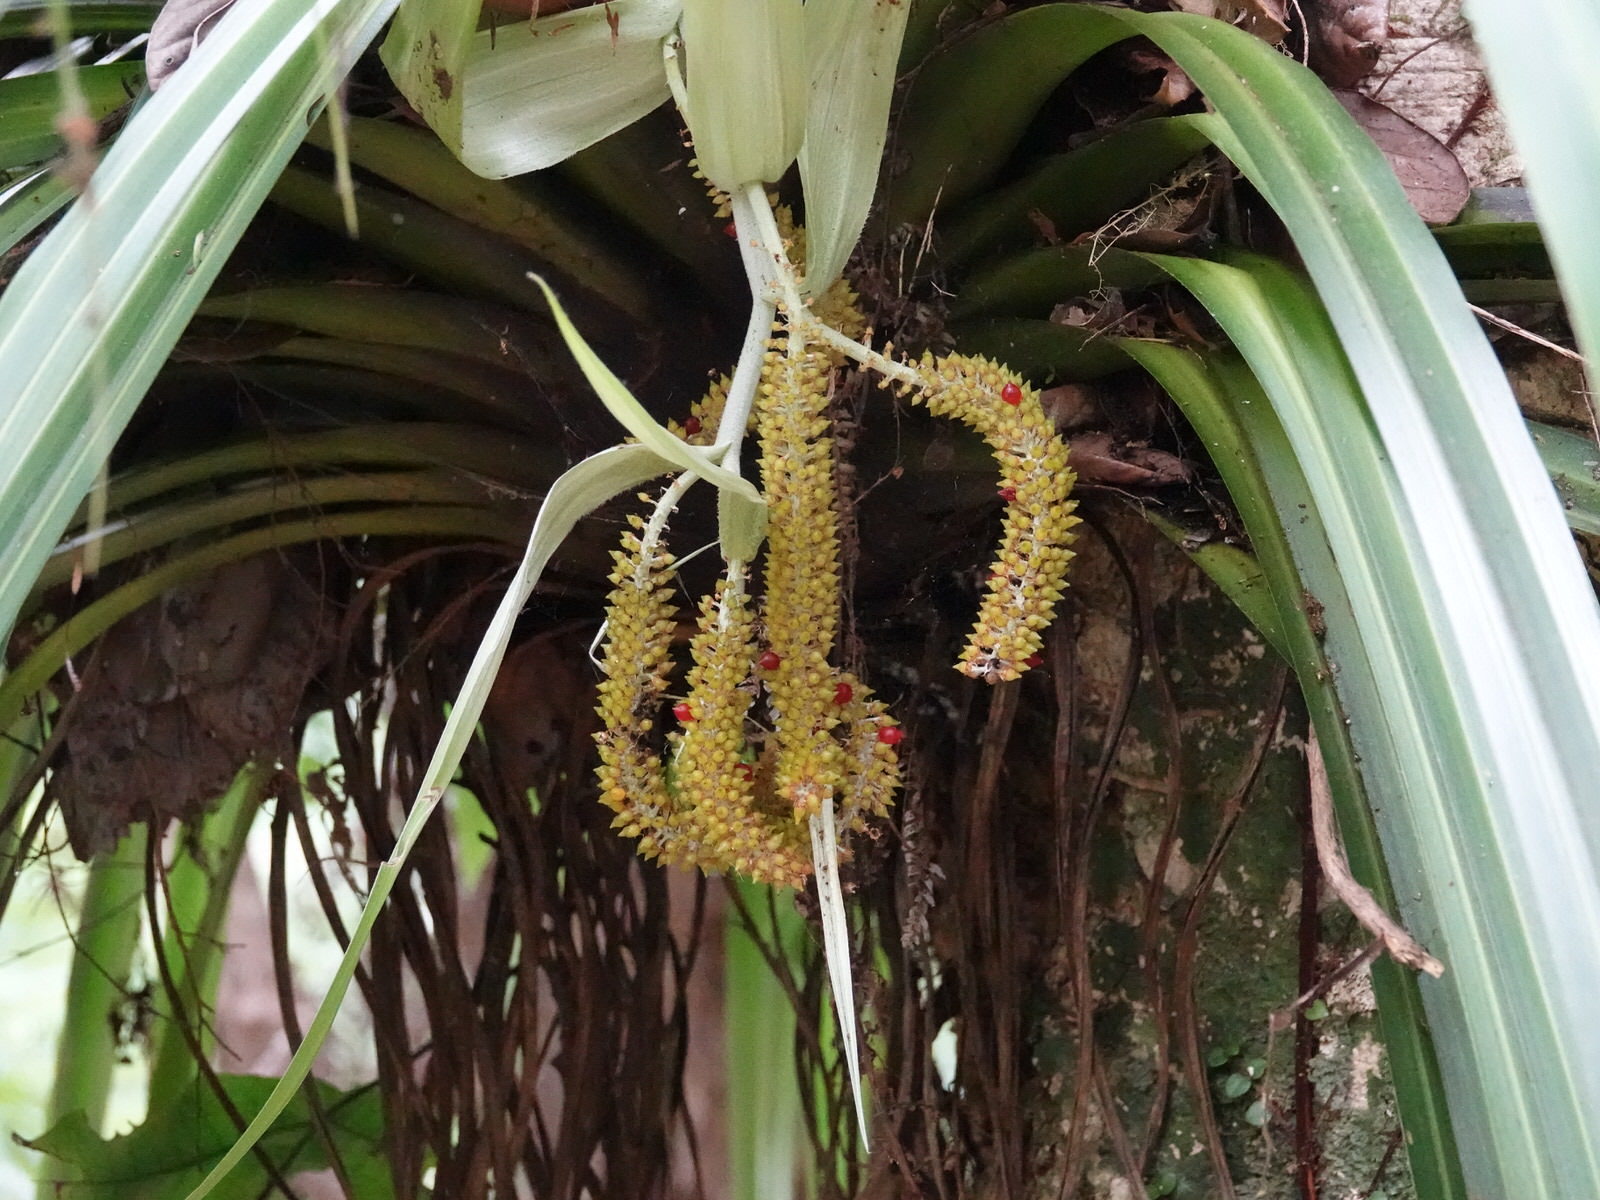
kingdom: Plantae
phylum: Tracheophyta
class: Liliopsida
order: Asparagales
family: Asteliaceae
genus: Astelia
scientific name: Astelia hastata
